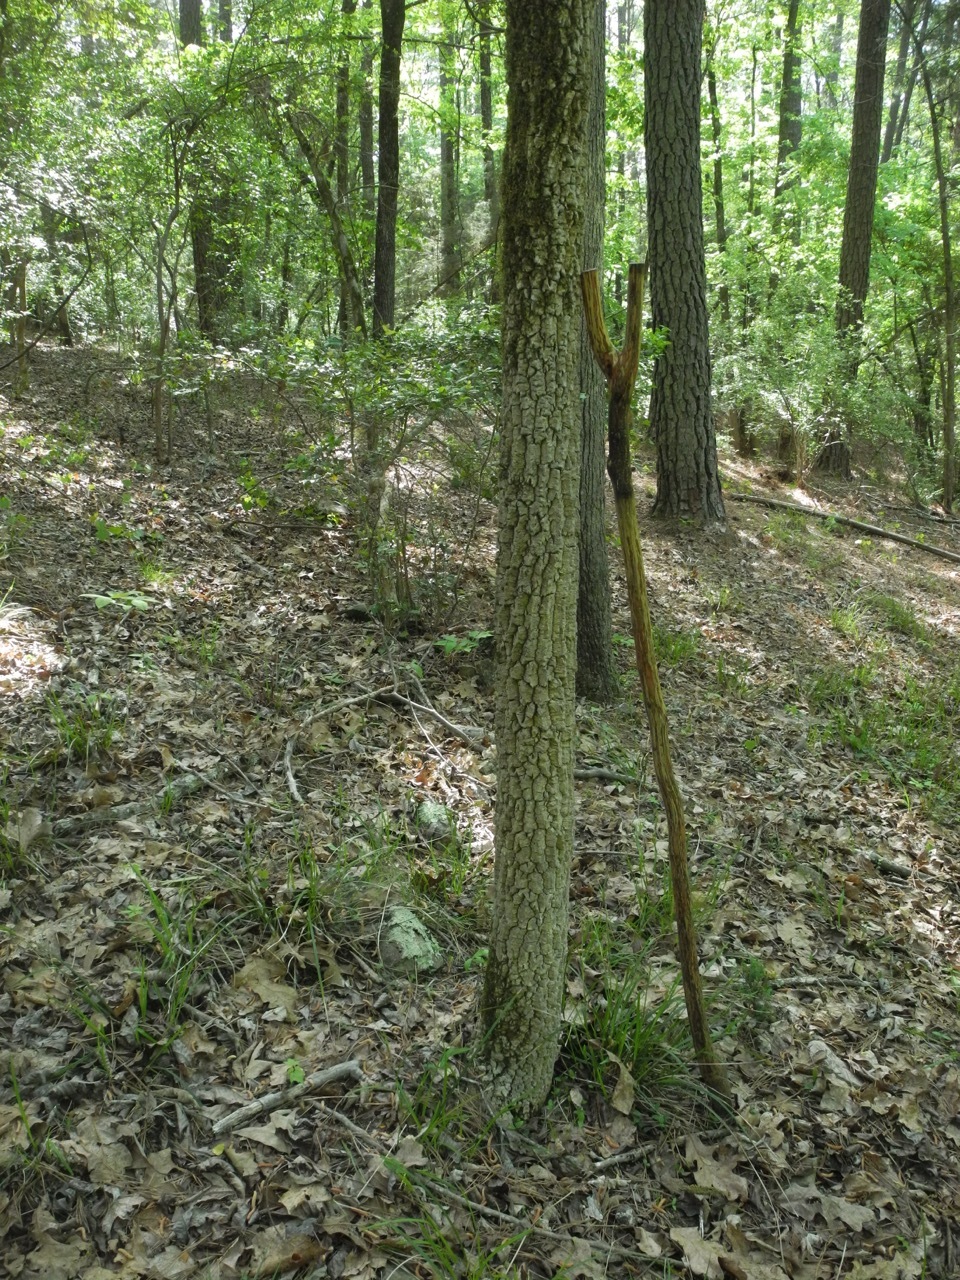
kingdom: Plantae
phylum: Tracheophyta
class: Magnoliopsida
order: Lamiales
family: Oleaceae
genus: Fraxinus
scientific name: Fraxinus pennsylvanica
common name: Green ash
